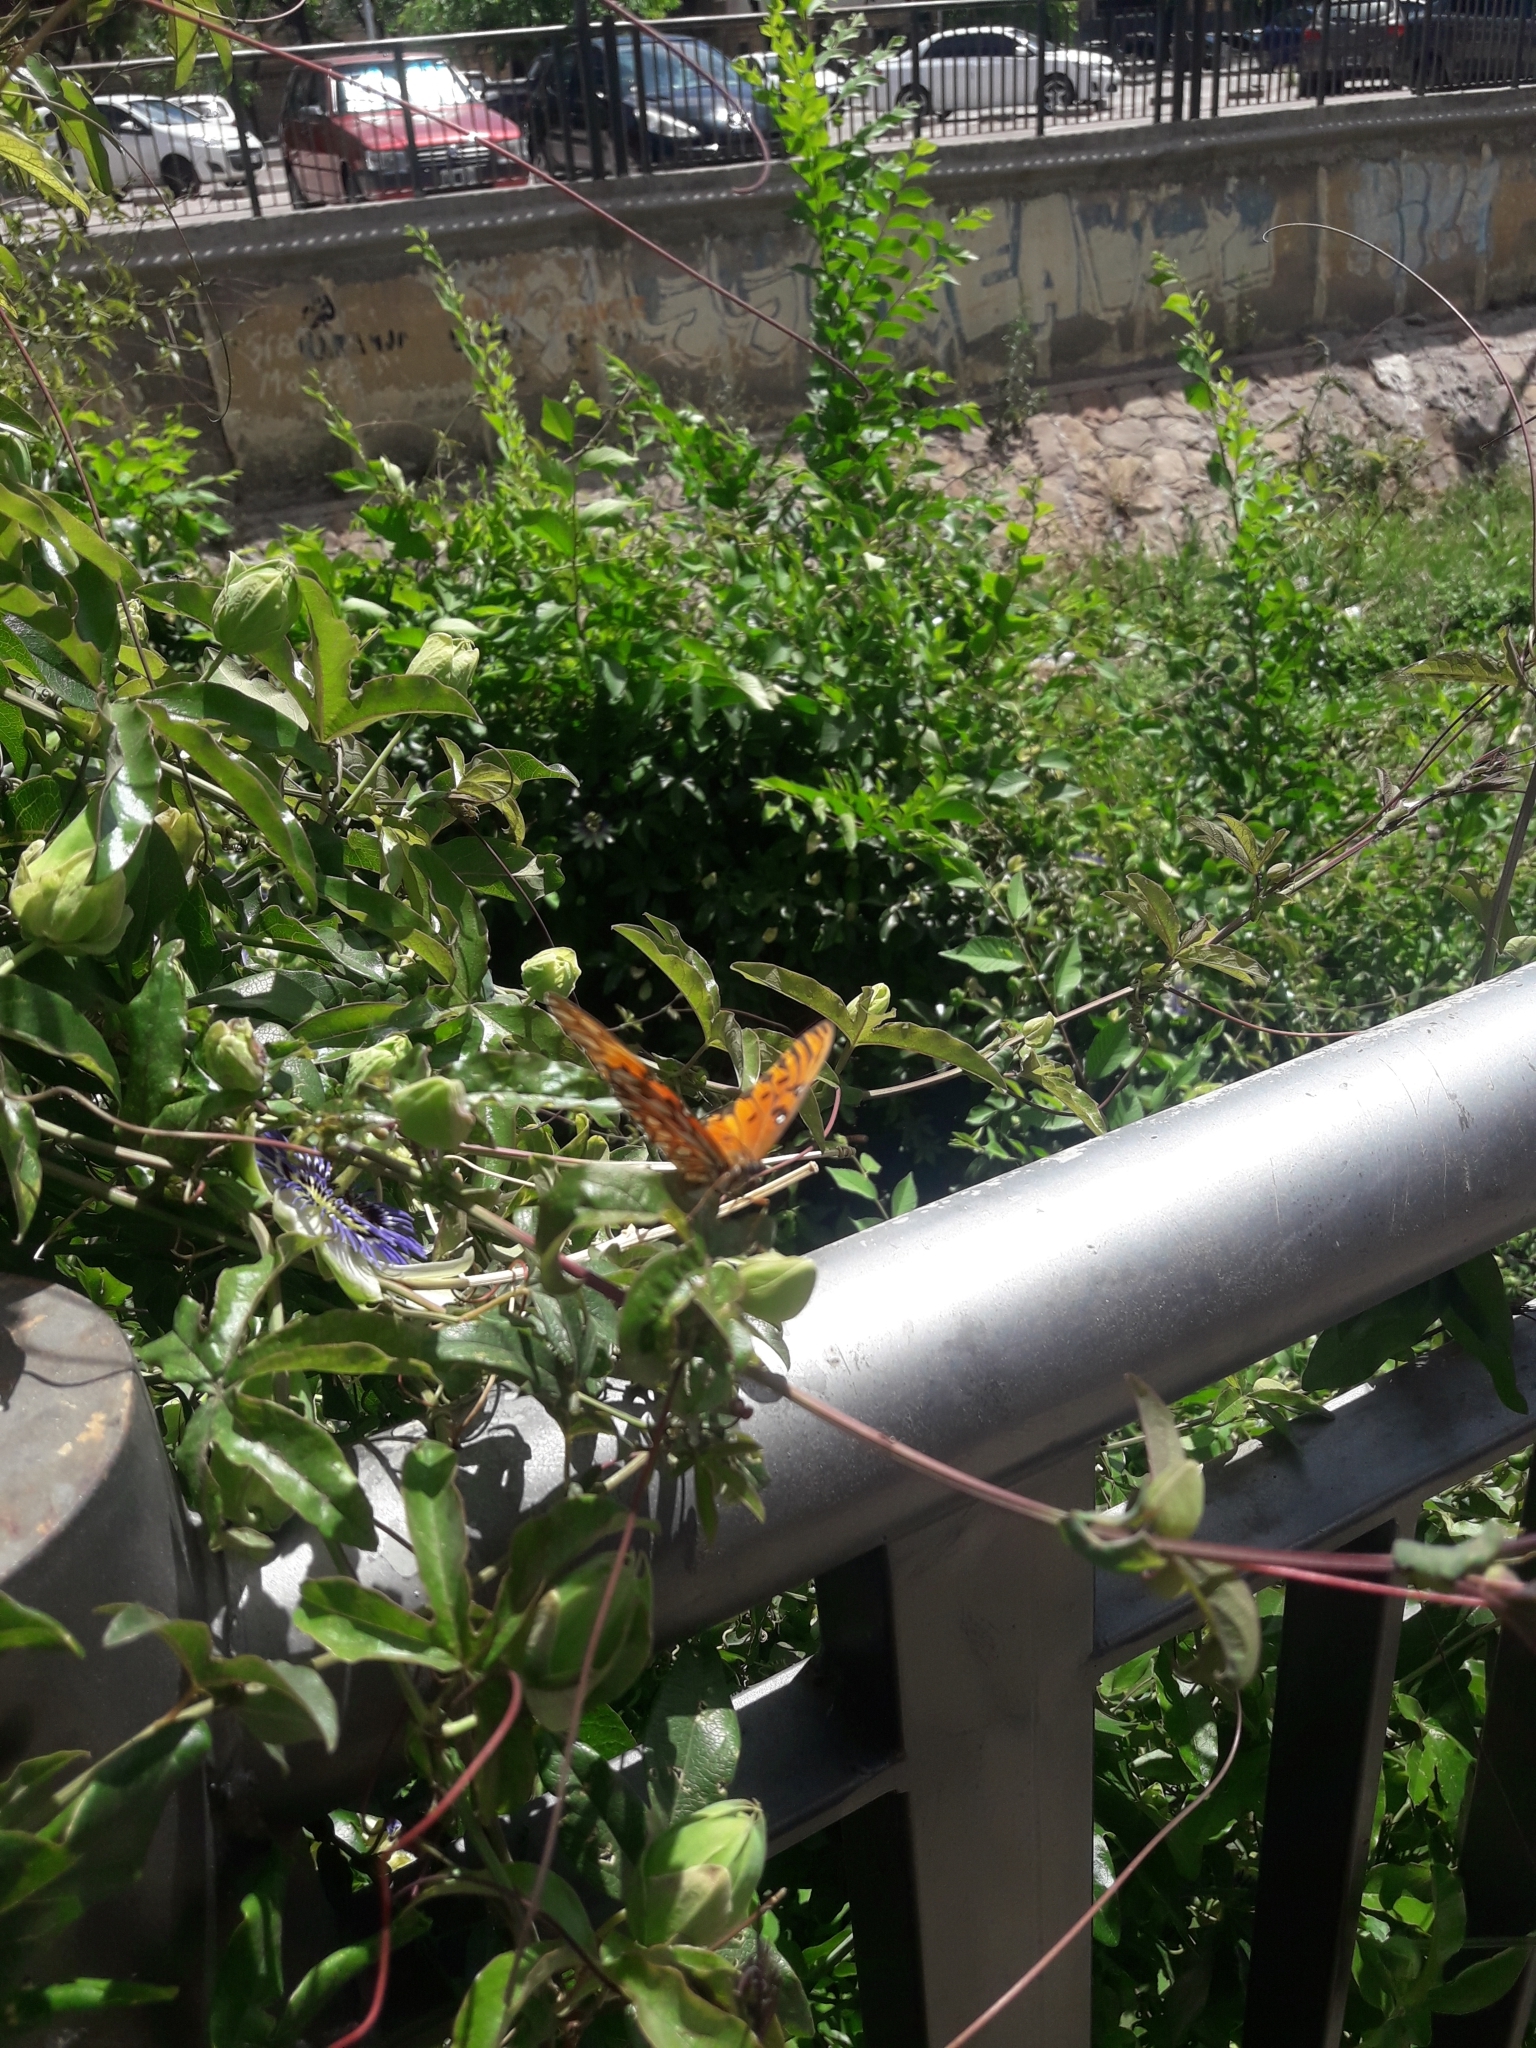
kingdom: Animalia
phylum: Arthropoda
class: Insecta
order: Lepidoptera
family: Nymphalidae
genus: Dione
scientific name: Dione vanillae
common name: Gulf fritillary
